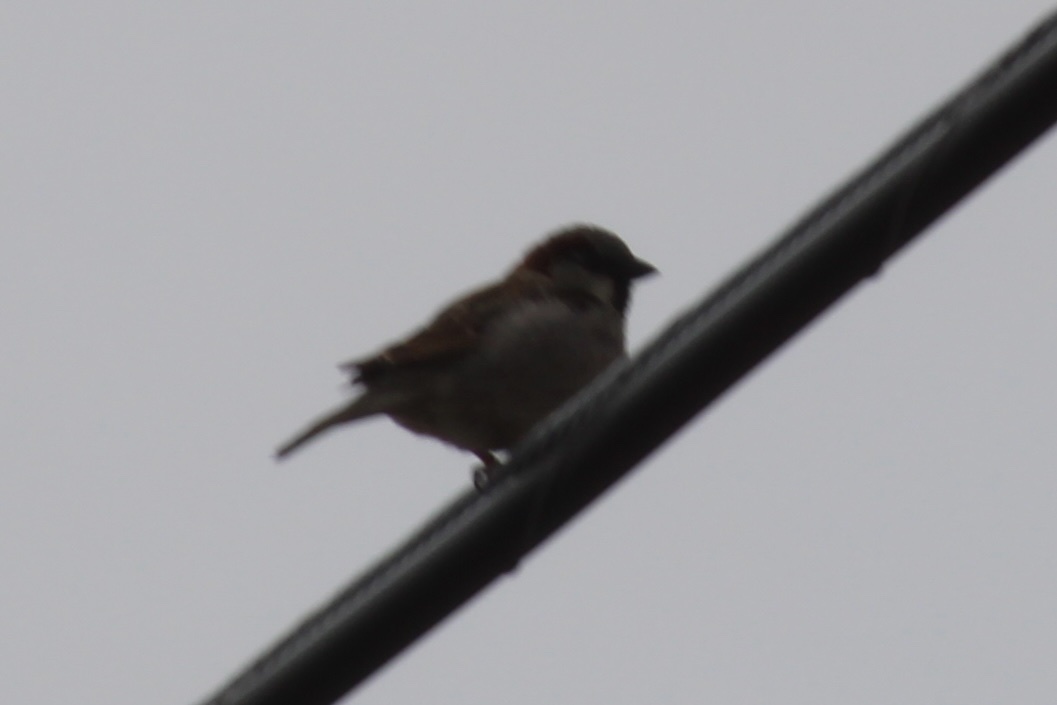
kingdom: Animalia
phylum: Chordata
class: Aves
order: Passeriformes
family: Passeridae
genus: Passer
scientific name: Passer domesticus
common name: House sparrow
